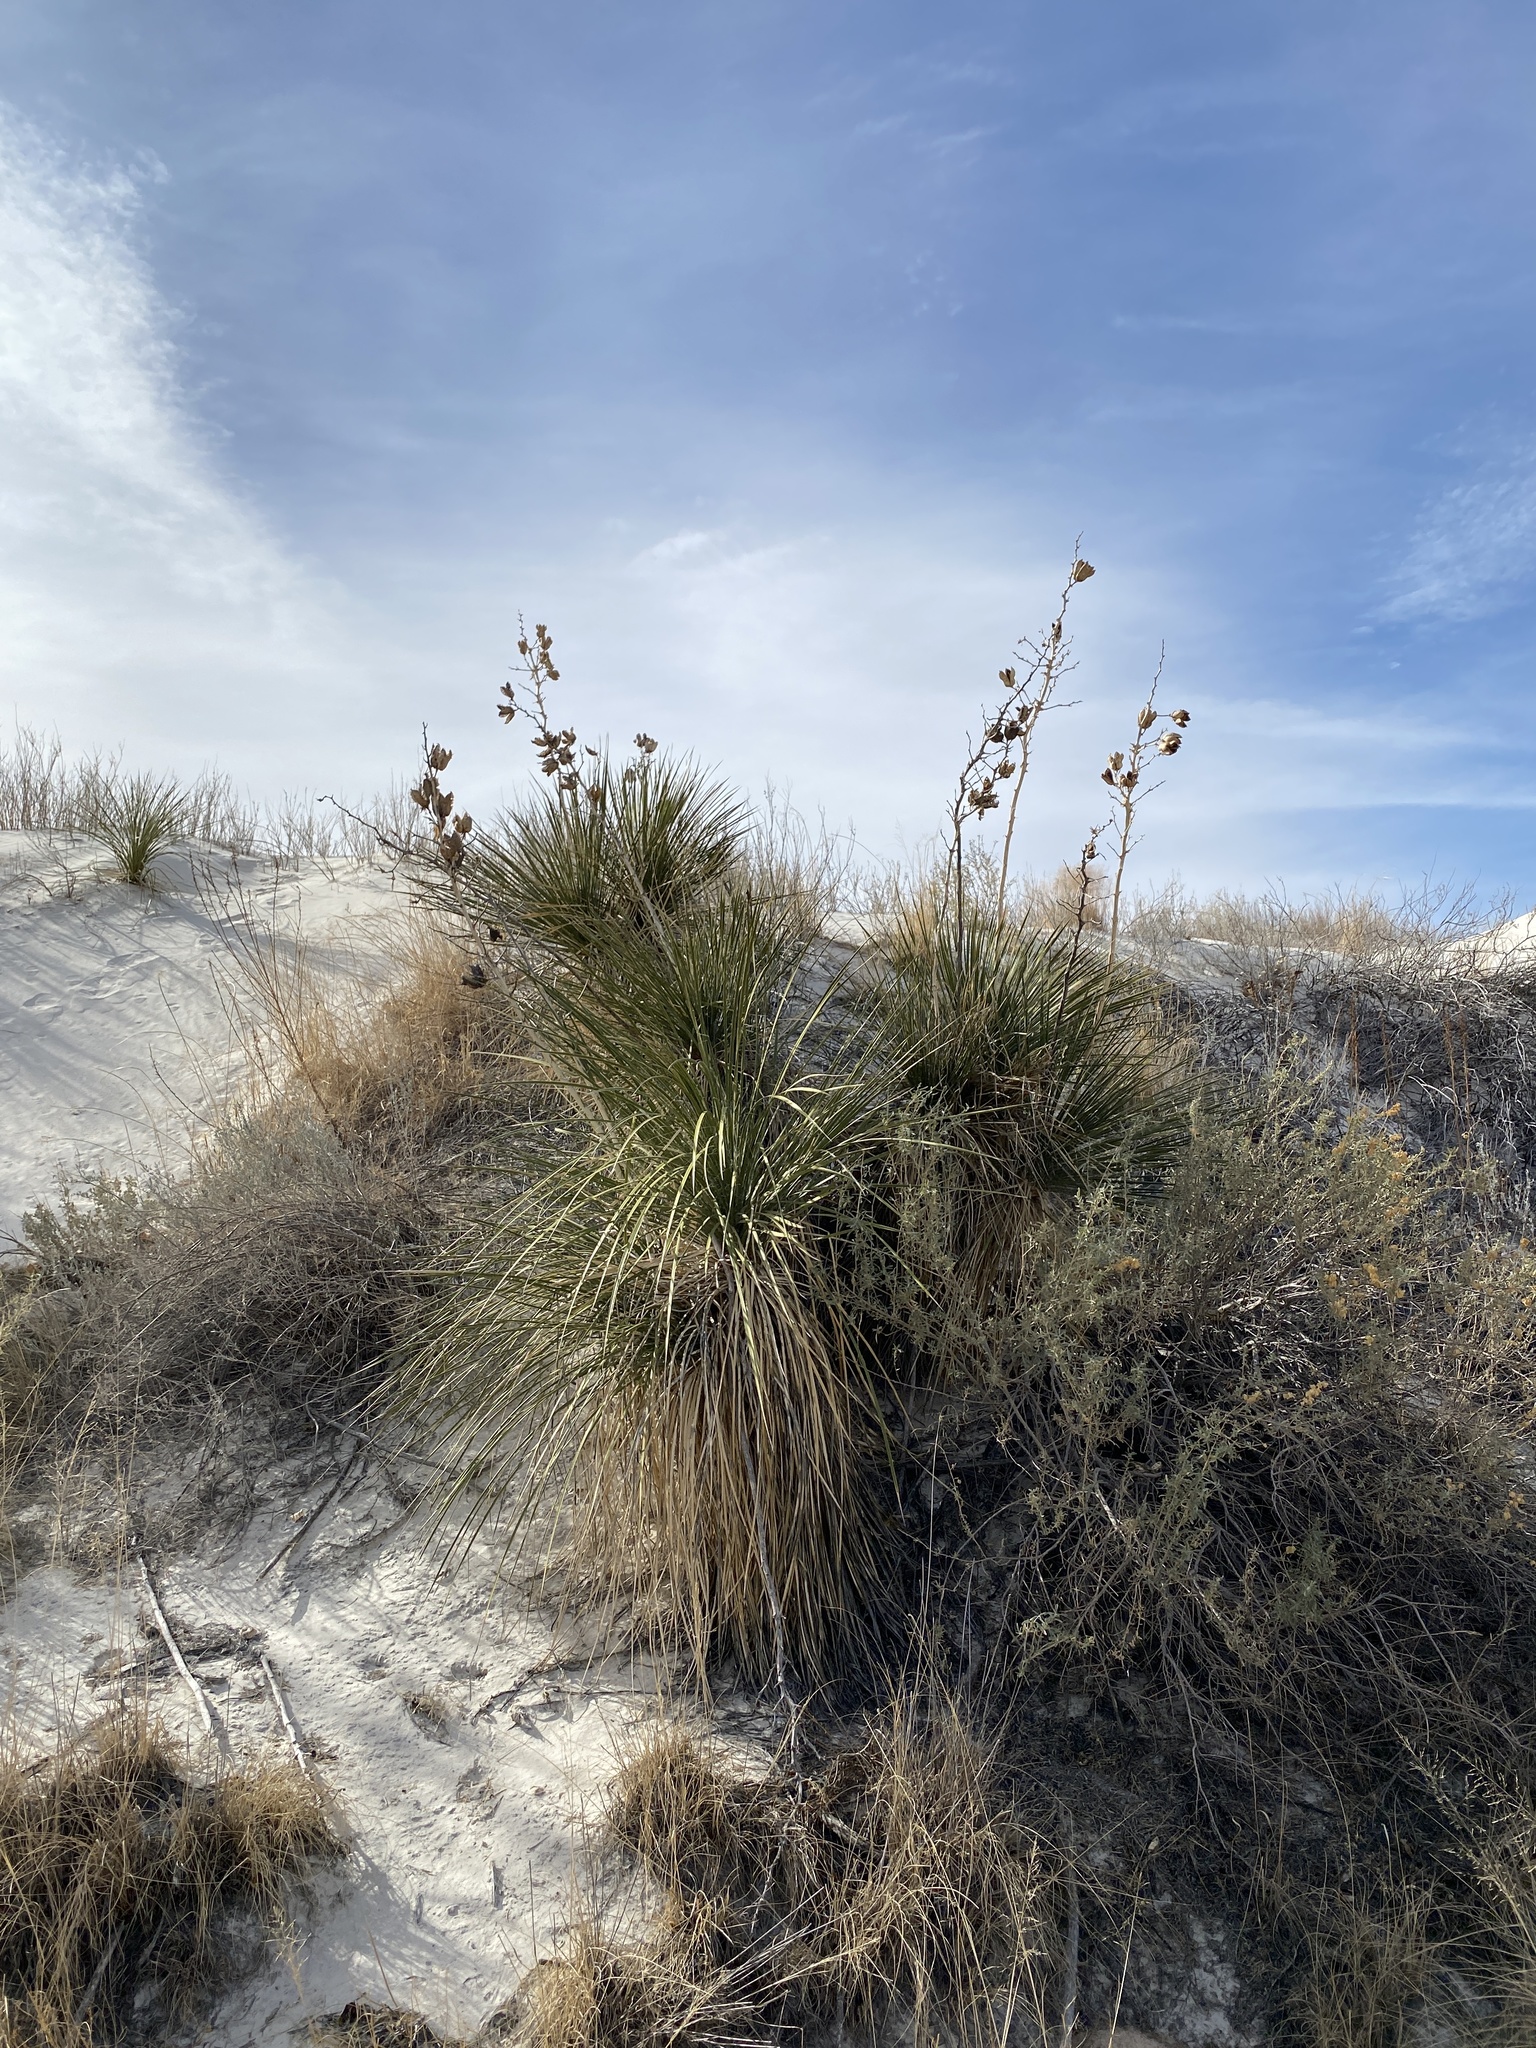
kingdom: Plantae
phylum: Tracheophyta
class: Liliopsida
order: Asparagales
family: Asparagaceae
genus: Yucca
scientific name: Yucca elata
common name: Palmella
